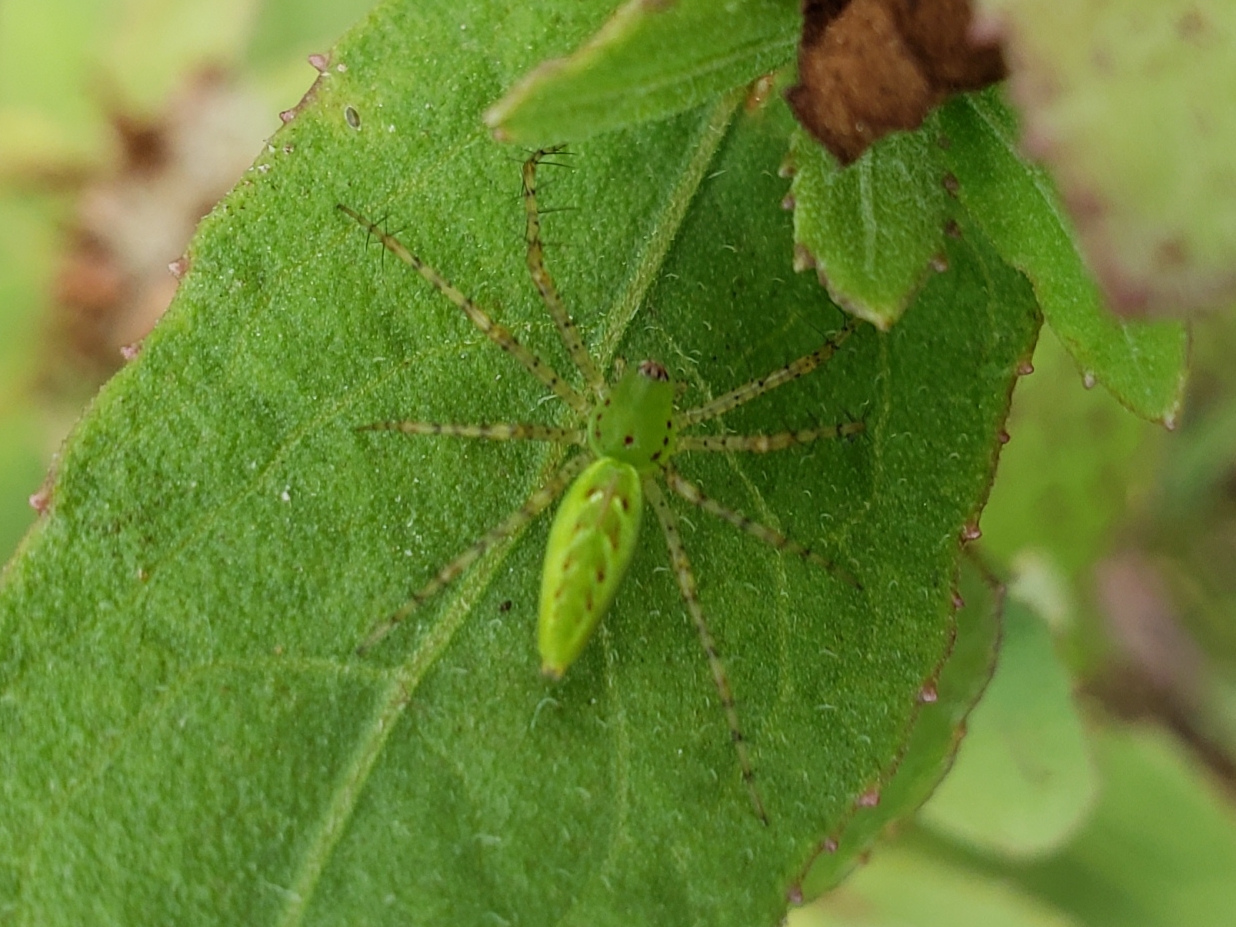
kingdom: Animalia
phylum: Arthropoda
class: Arachnida
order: Araneae
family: Oxyopidae
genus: Peucetia
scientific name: Peucetia viridans
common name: Lynx spiders
